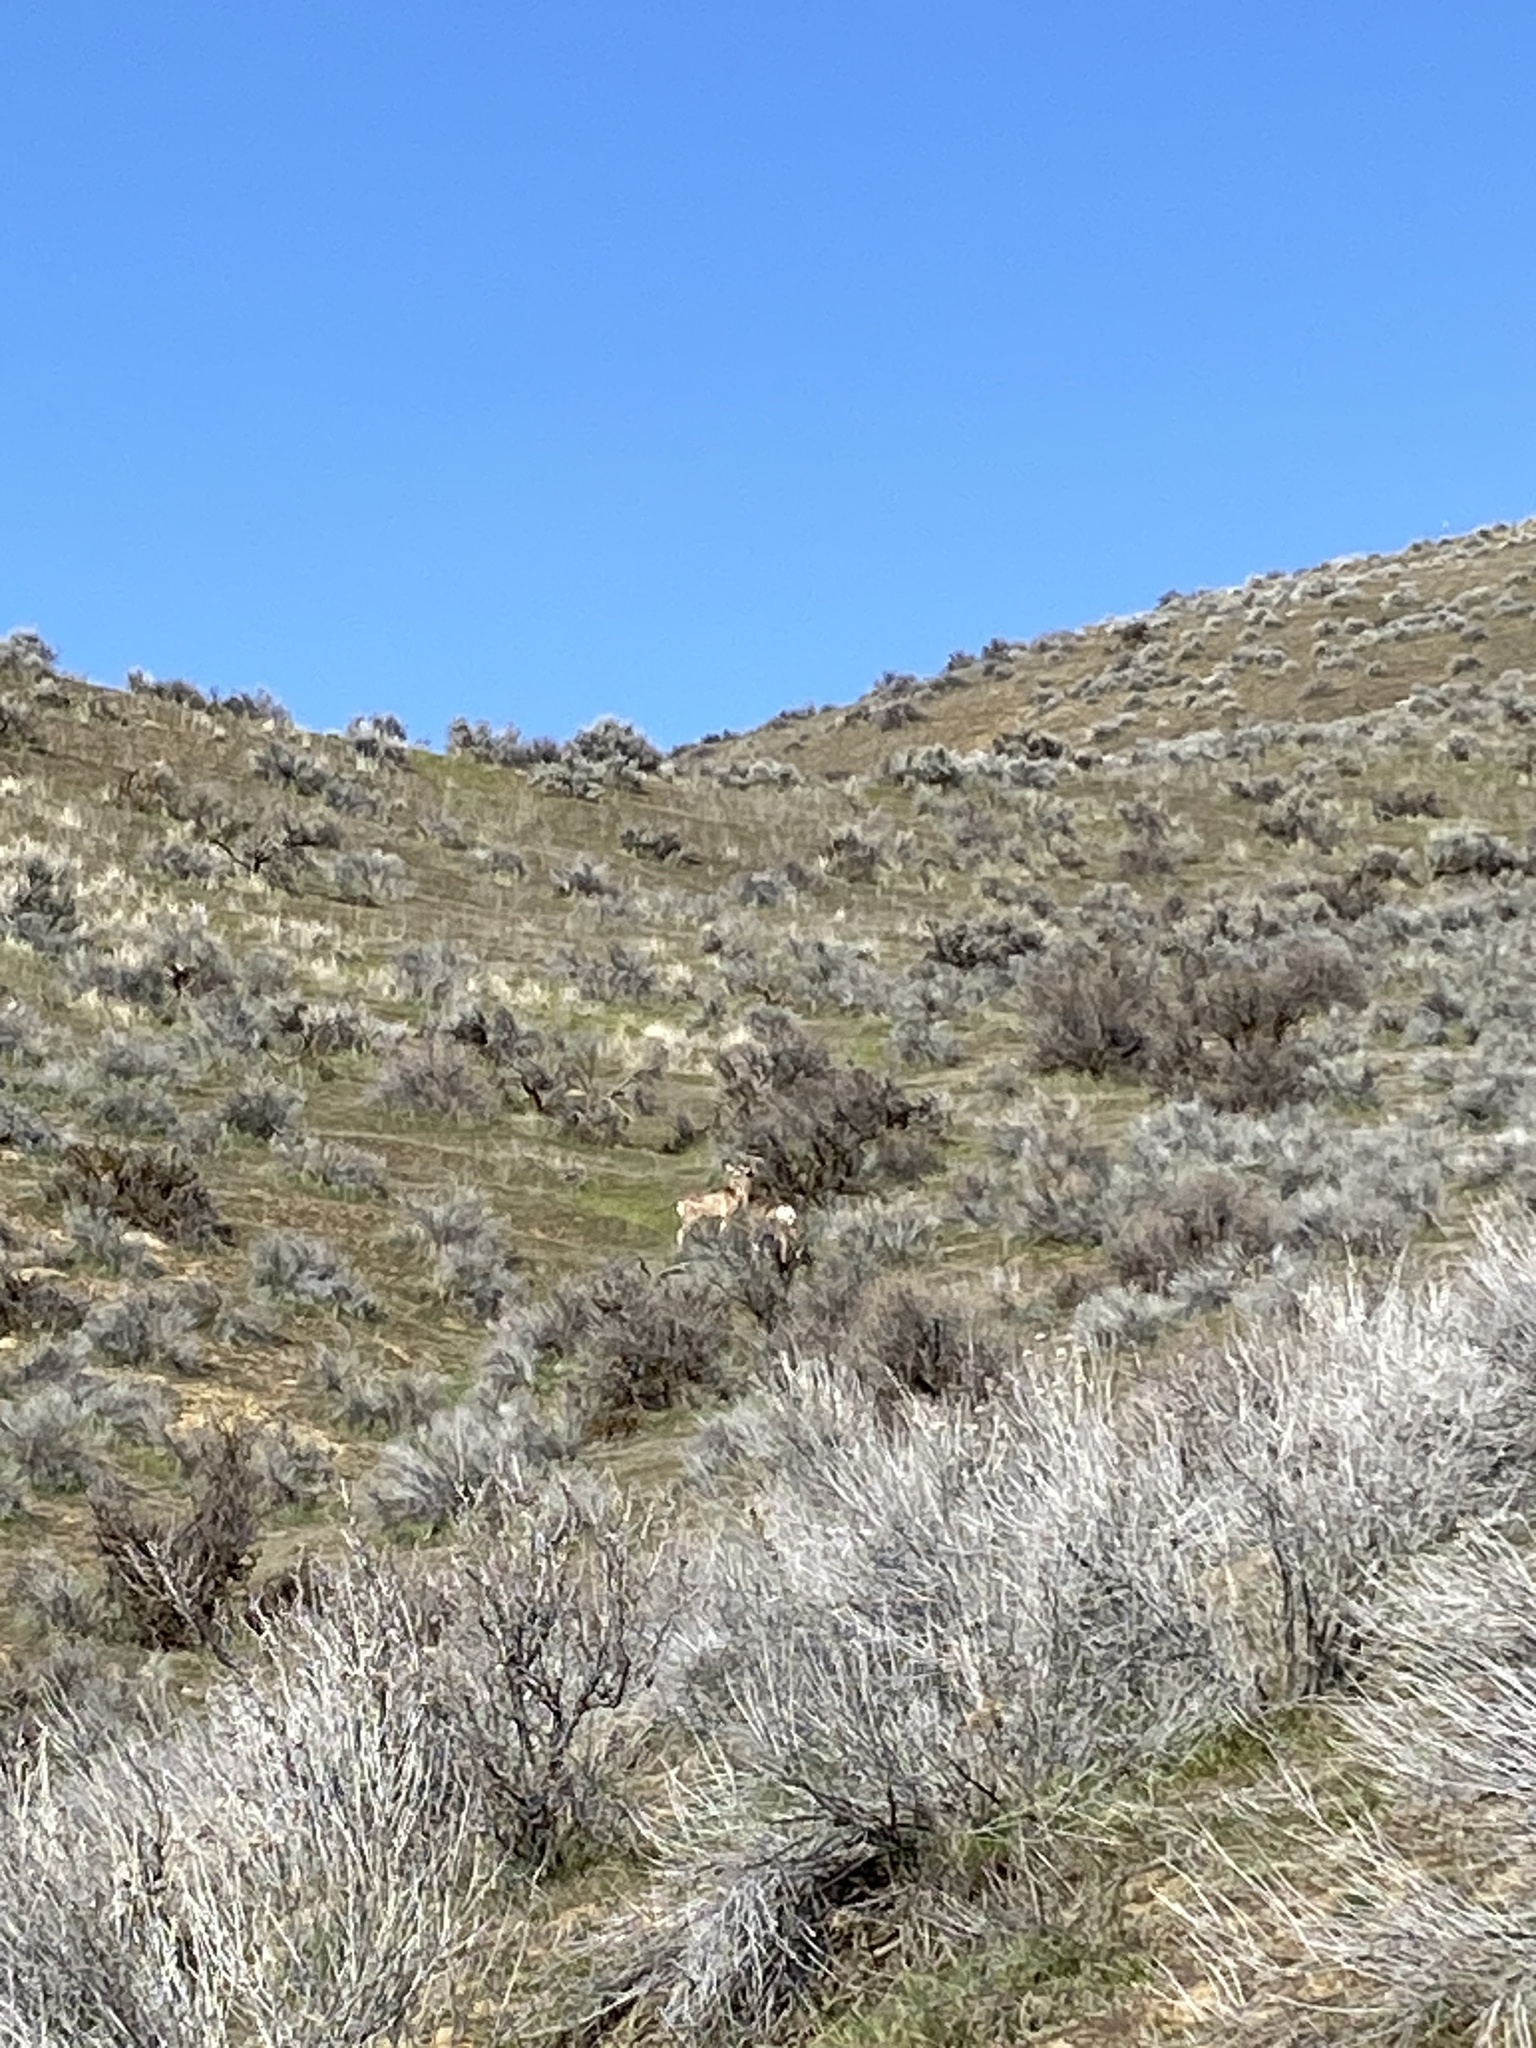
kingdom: Animalia
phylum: Chordata
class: Mammalia
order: Artiodactyla
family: Cervidae
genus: Odocoileus
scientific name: Odocoileus hemionus
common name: Mule deer
